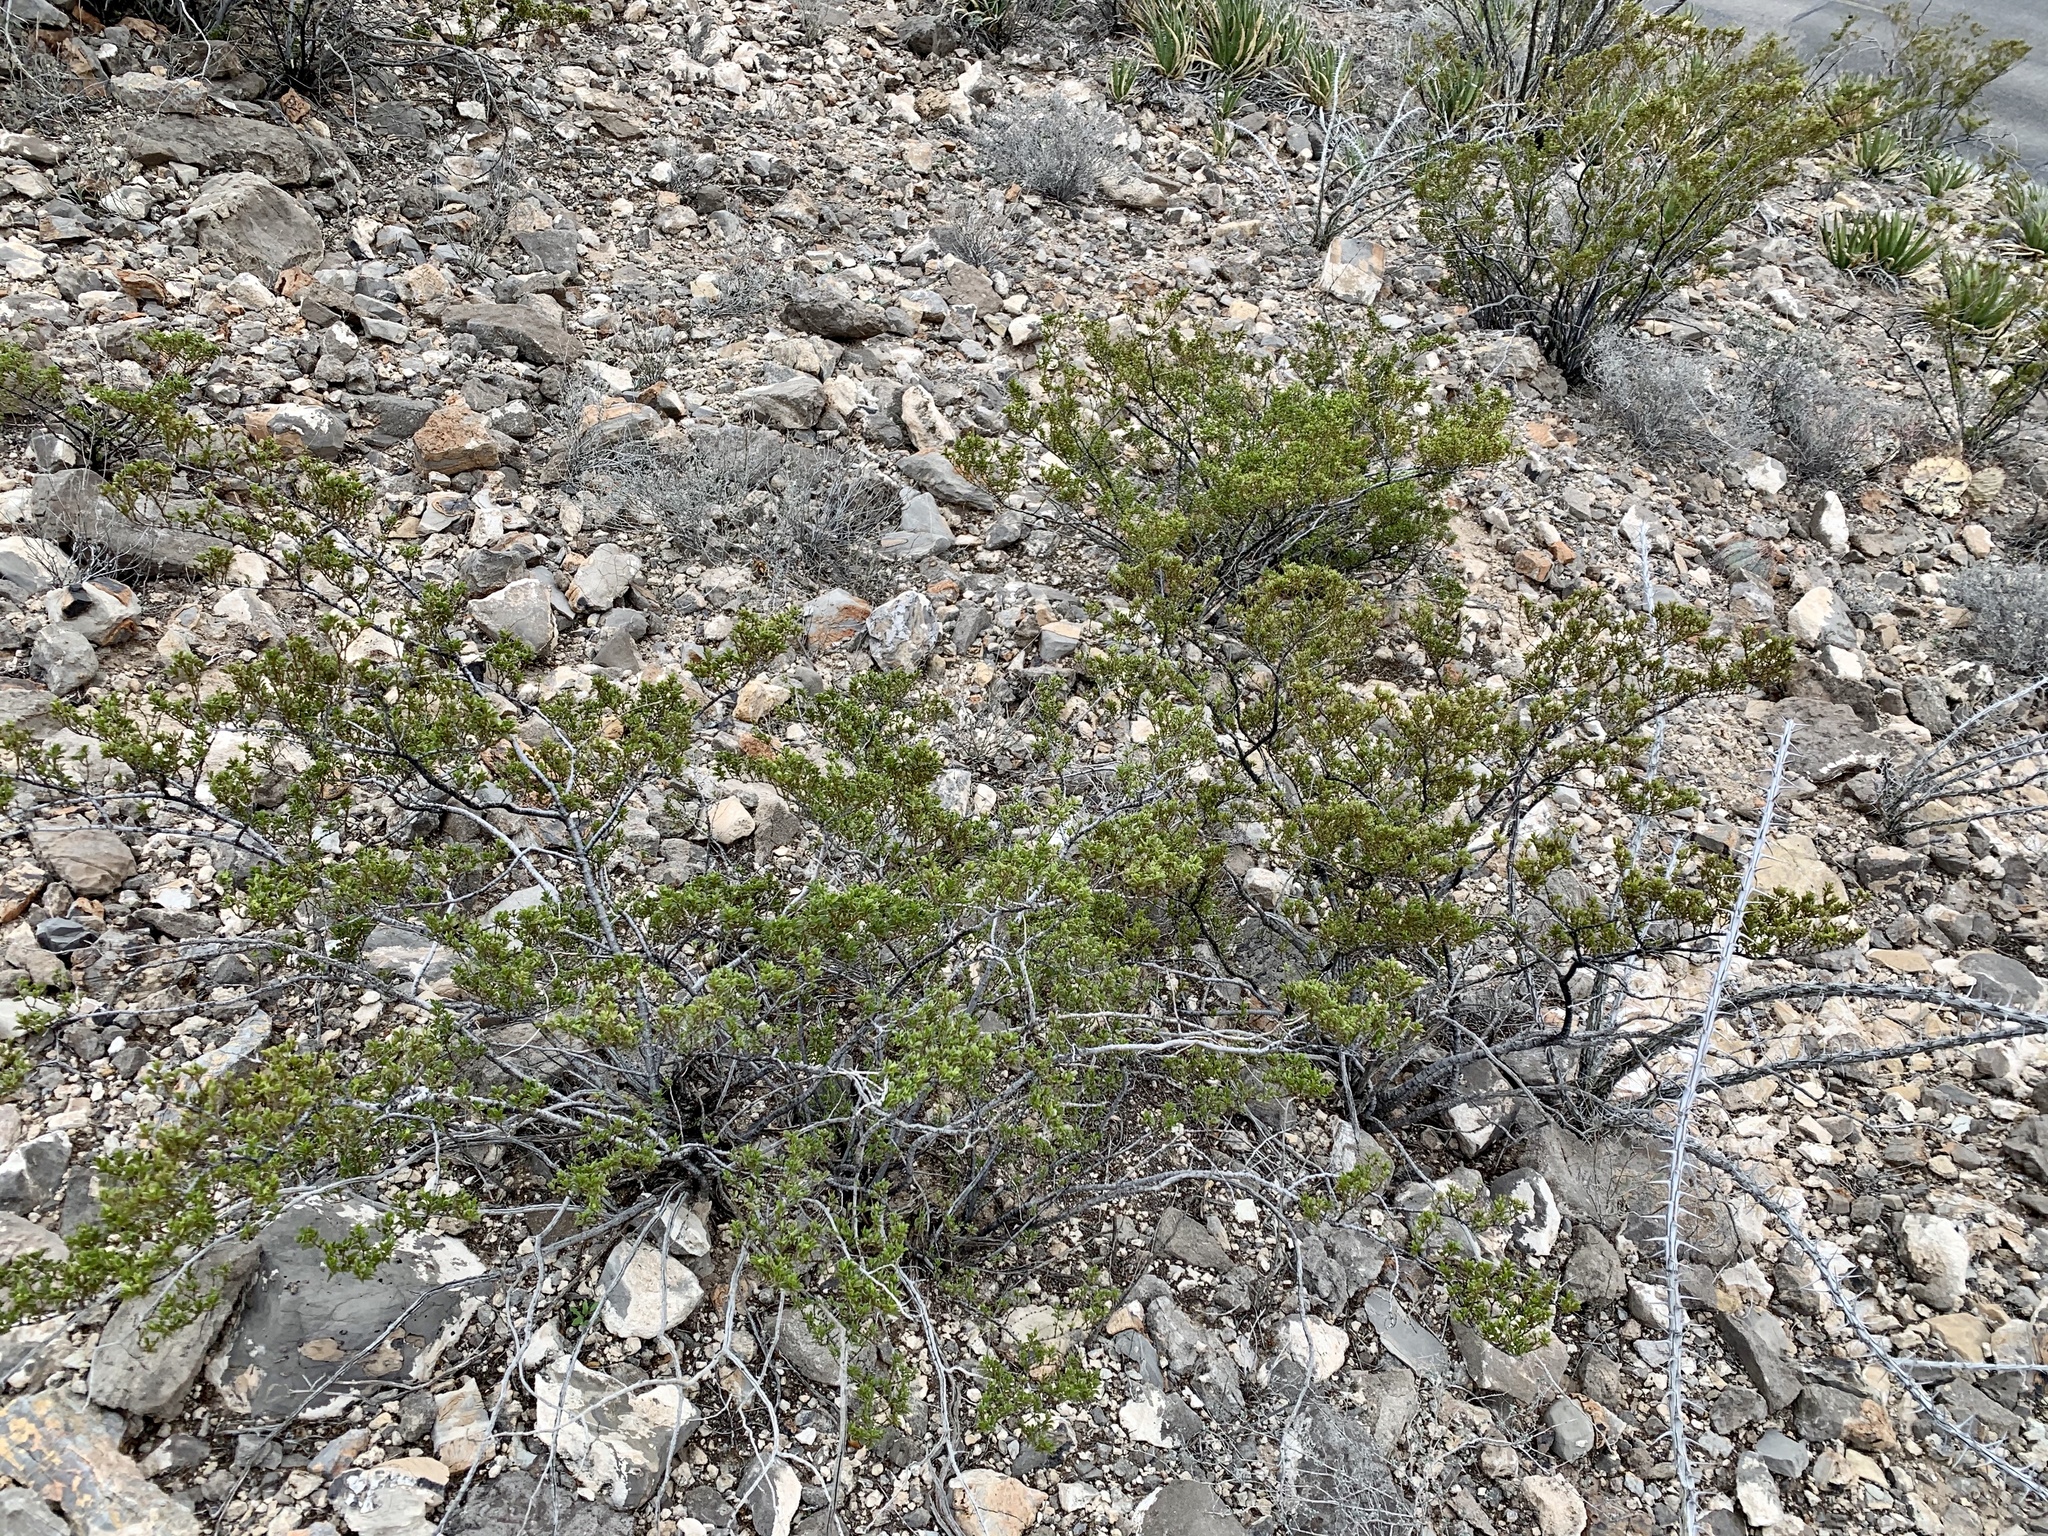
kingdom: Plantae
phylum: Tracheophyta
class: Magnoliopsida
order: Zygophyllales
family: Zygophyllaceae
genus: Larrea
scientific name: Larrea tridentata
